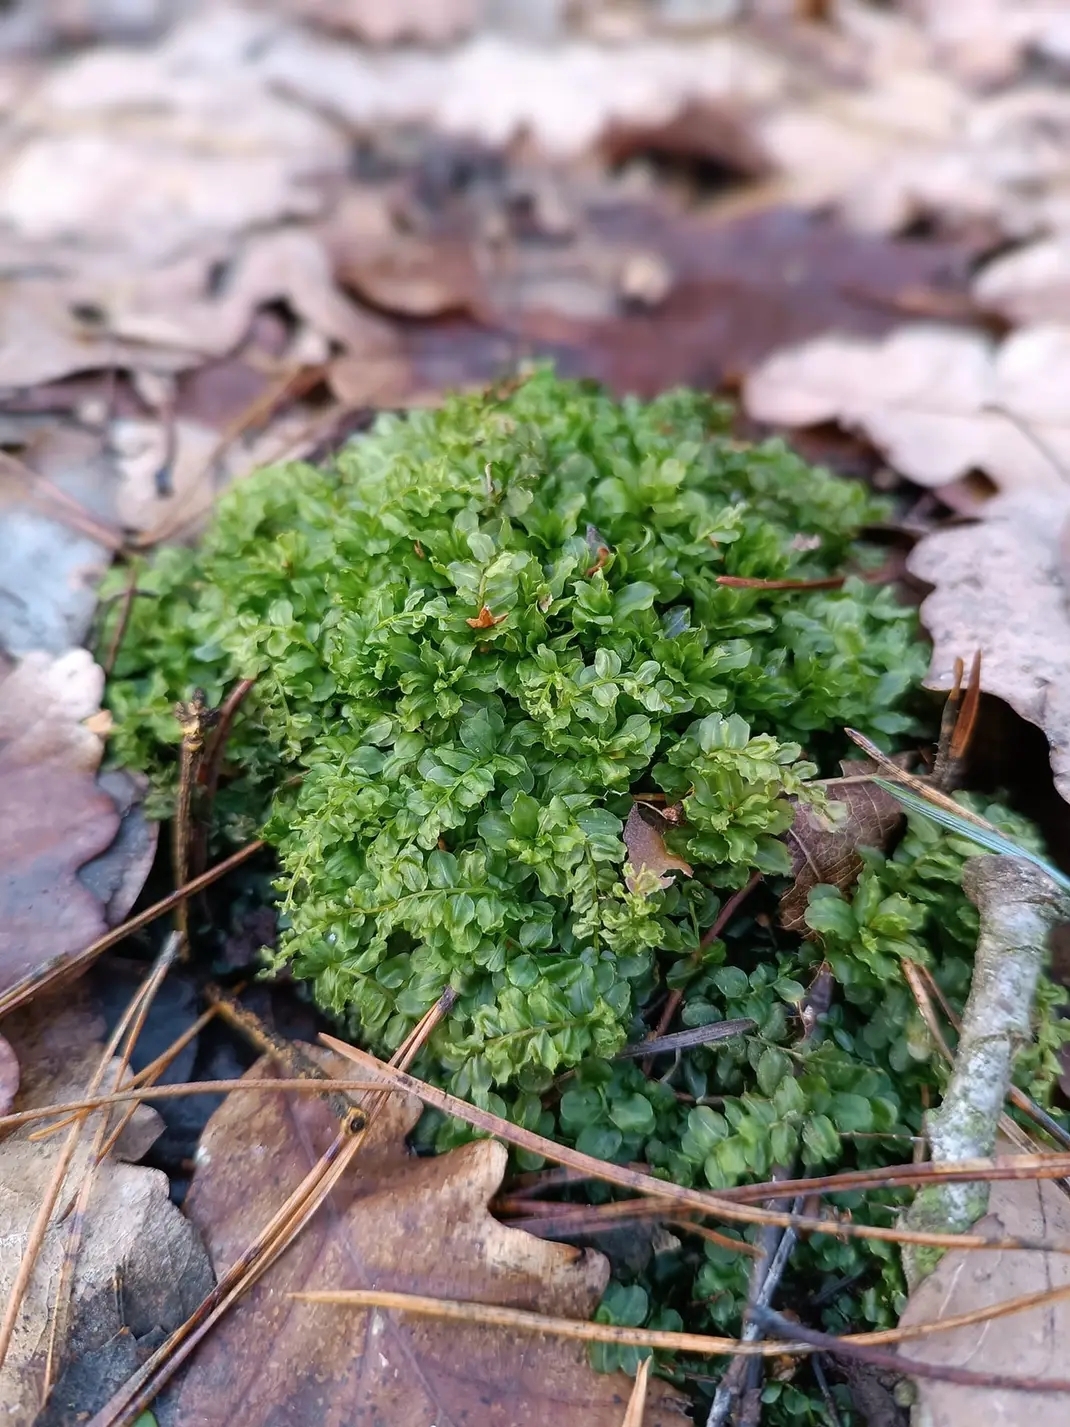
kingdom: Plantae
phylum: Bryophyta
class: Bryopsida
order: Bryales
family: Mniaceae
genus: Plagiomnium
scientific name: Plagiomnium affine
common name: Many-fruited thyme-moss
